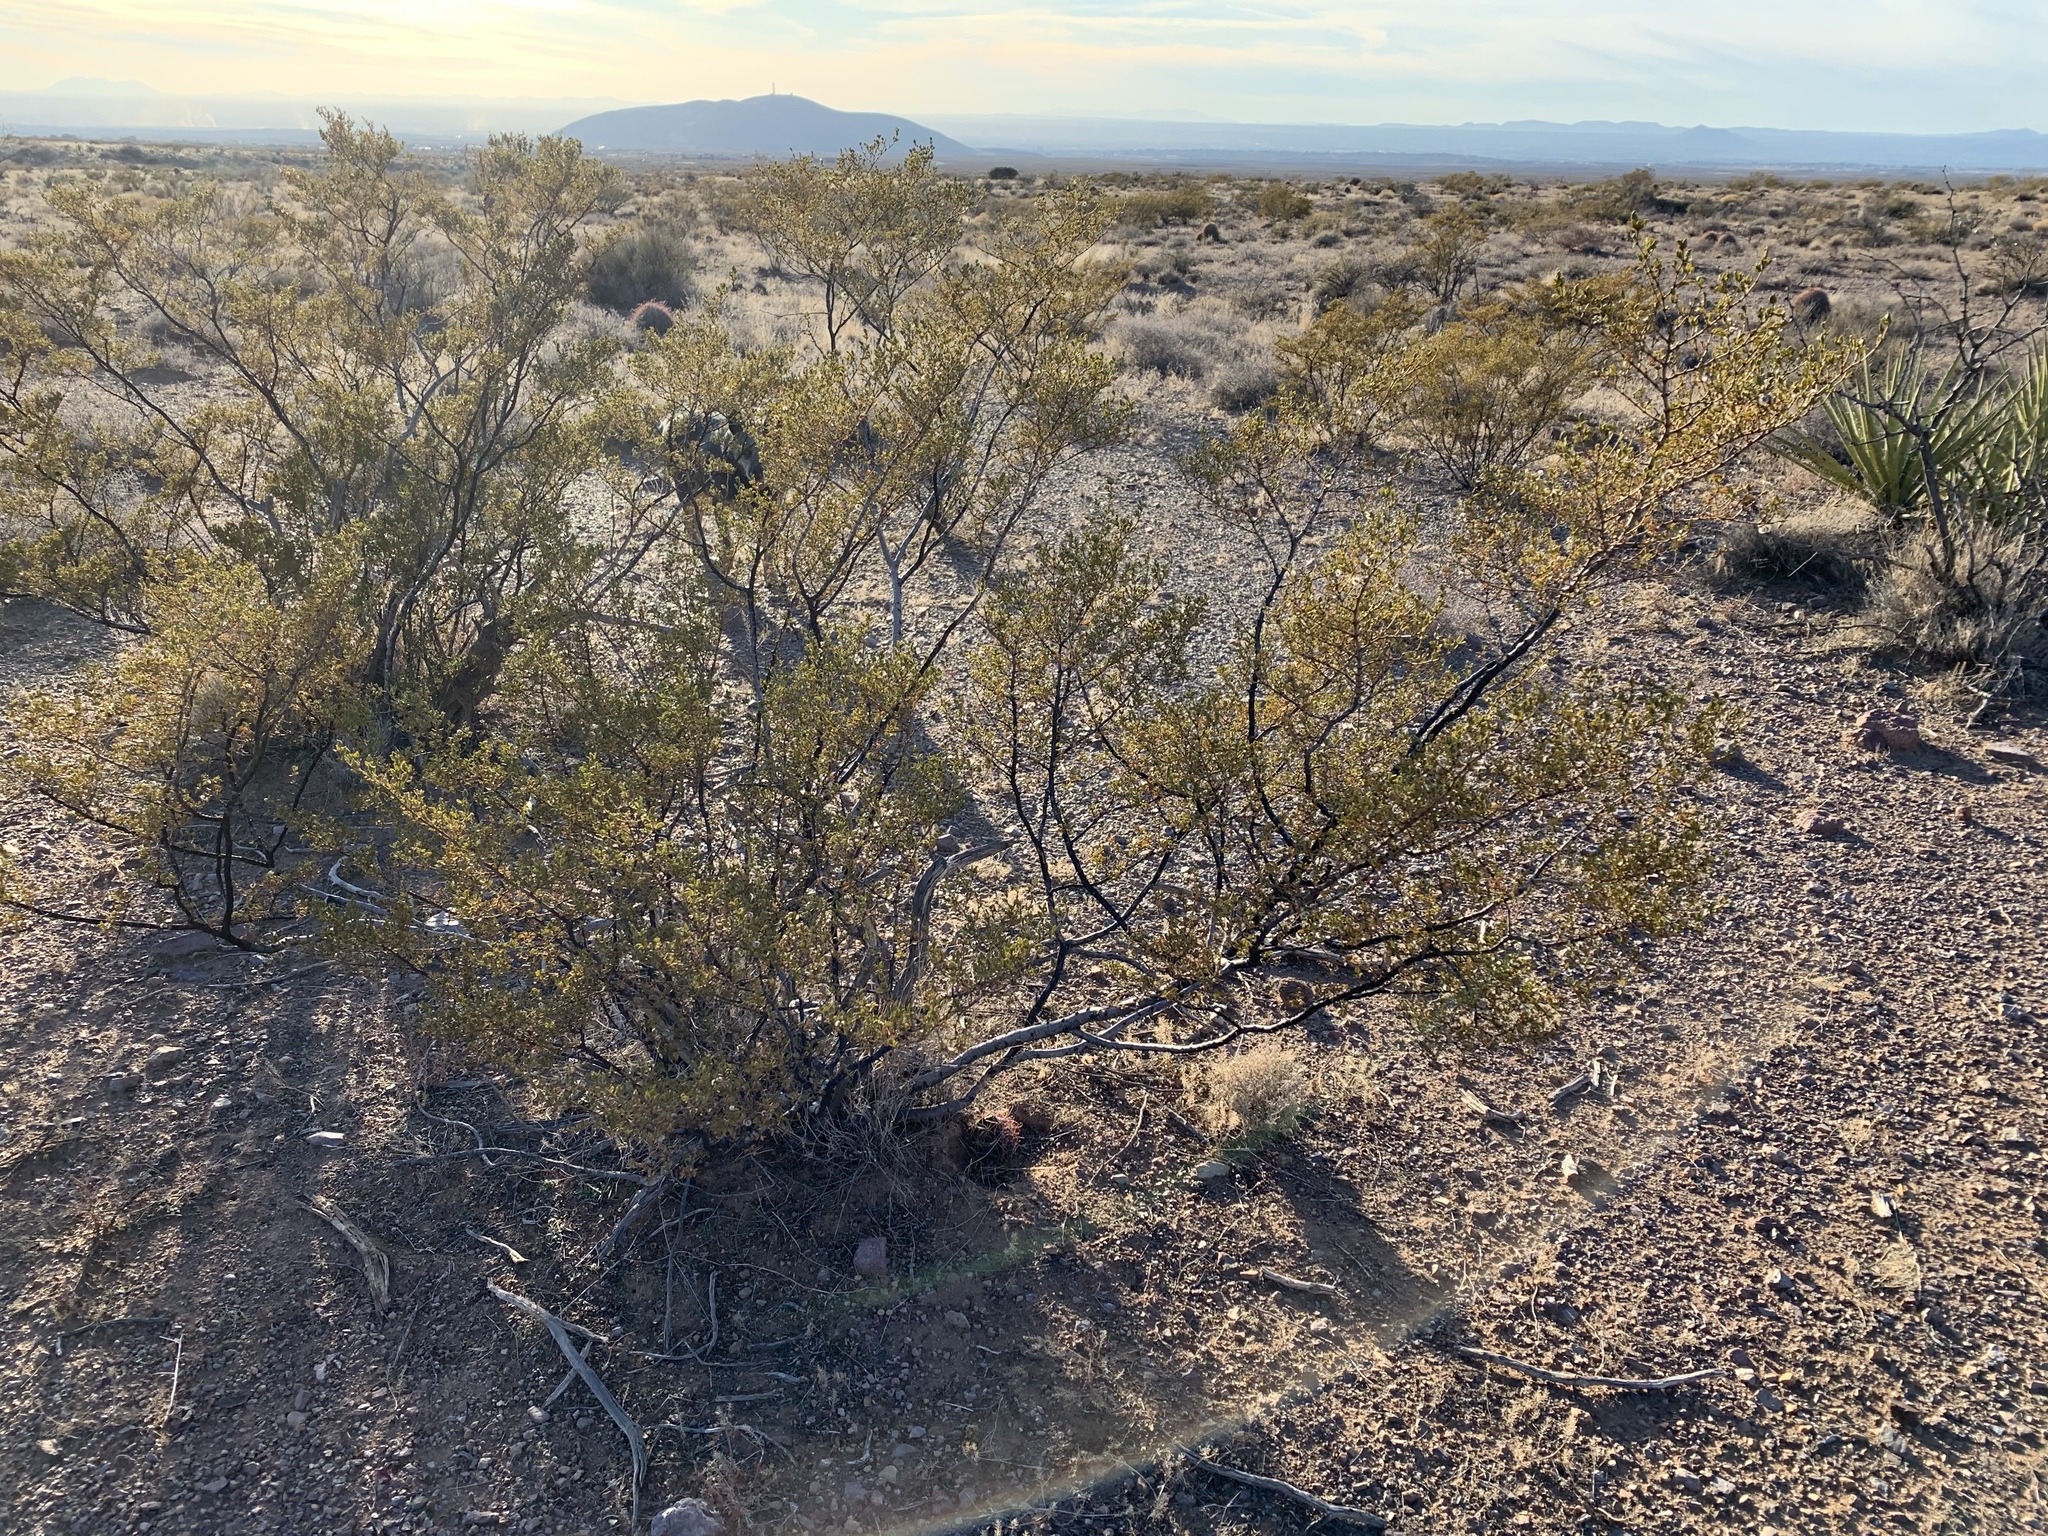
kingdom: Plantae
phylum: Tracheophyta
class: Magnoliopsida
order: Zygophyllales
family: Zygophyllaceae
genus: Larrea
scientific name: Larrea tridentata
